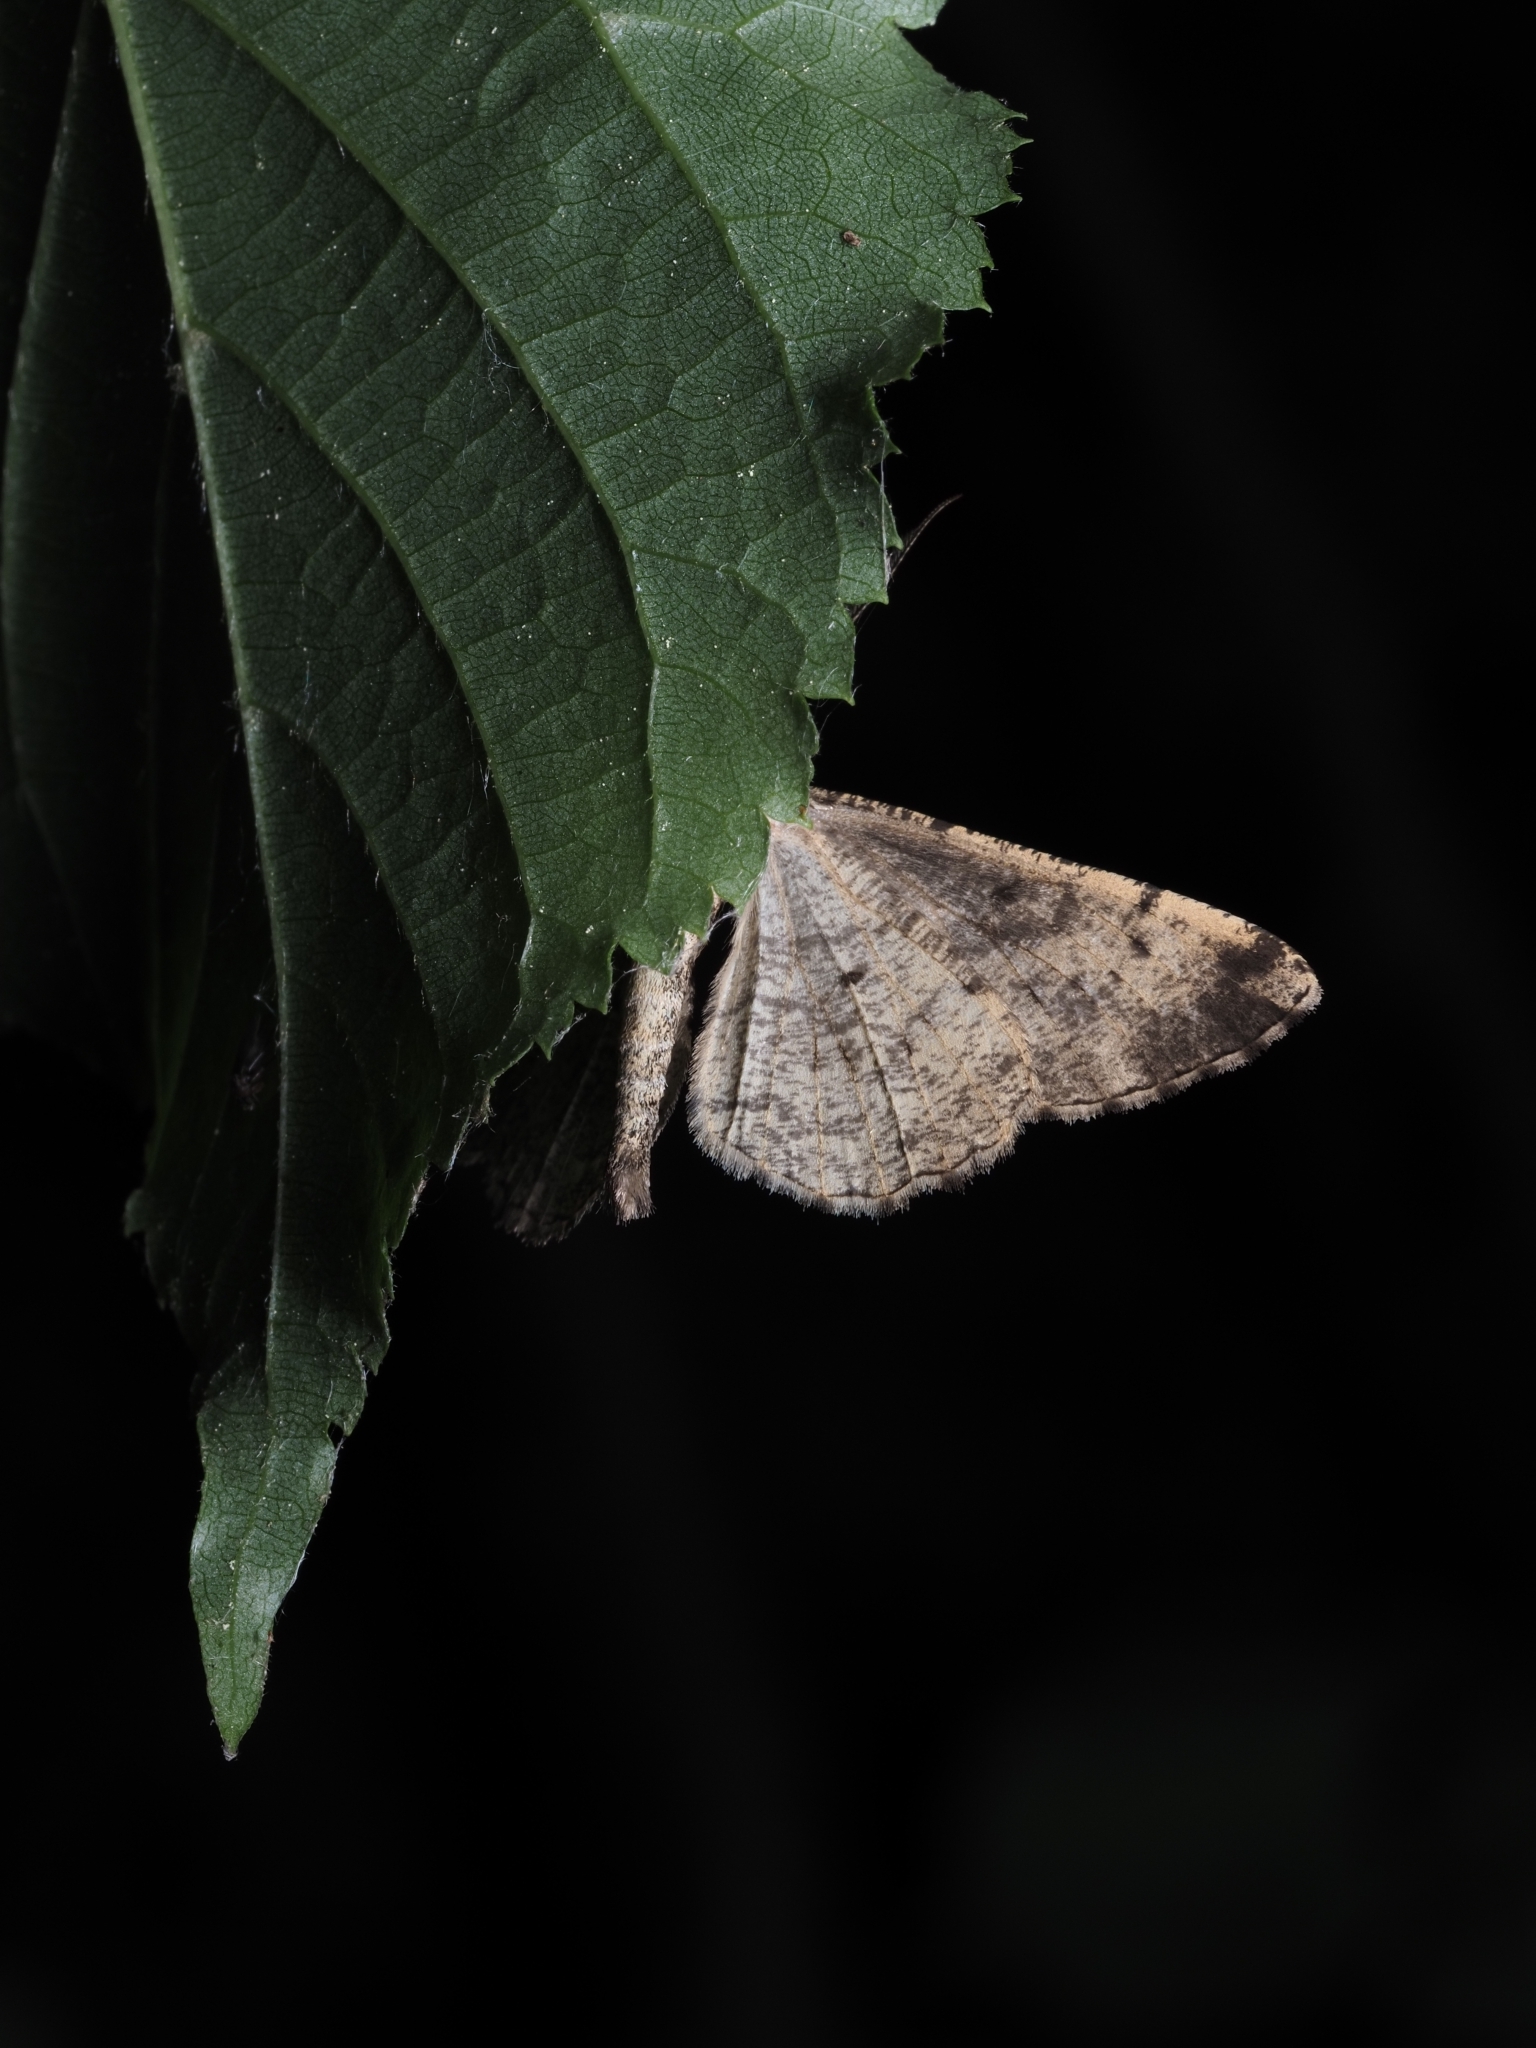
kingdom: Animalia
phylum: Arthropoda
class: Insecta
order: Lepidoptera
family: Geometridae
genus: Peribatodes
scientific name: Peribatodes rhomboidaria
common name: Willow beauty
